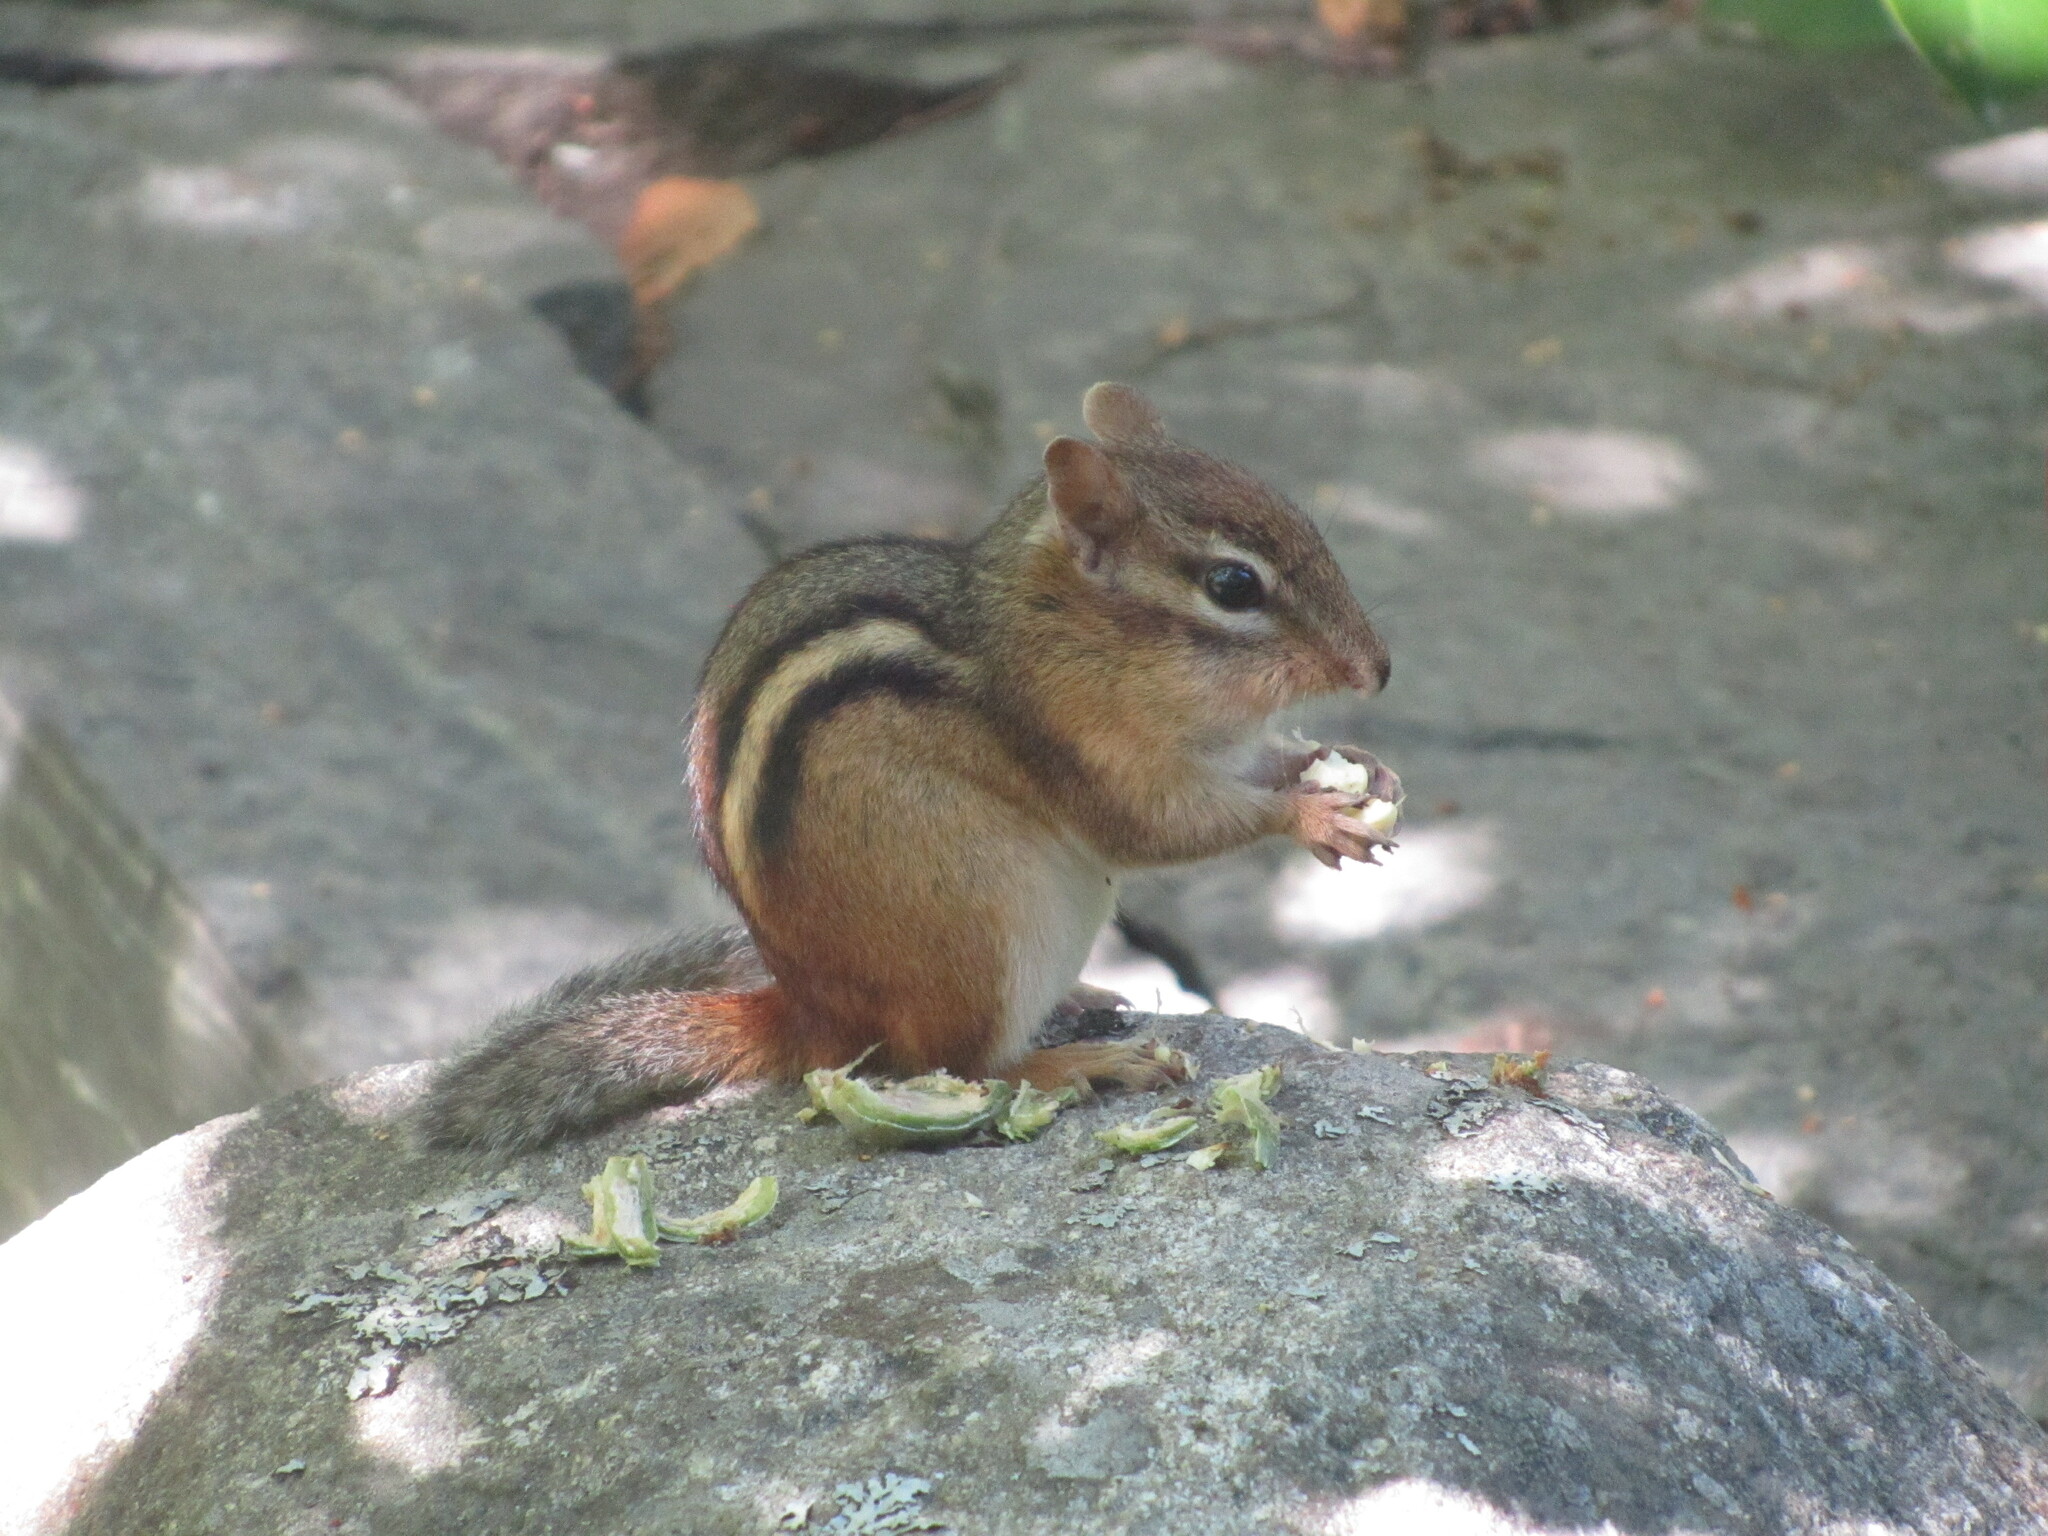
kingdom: Animalia
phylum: Chordata
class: Mammalia
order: Rodentia
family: Sciuridae
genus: Tamias
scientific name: Tamias striatus
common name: Eastern chipmunk
